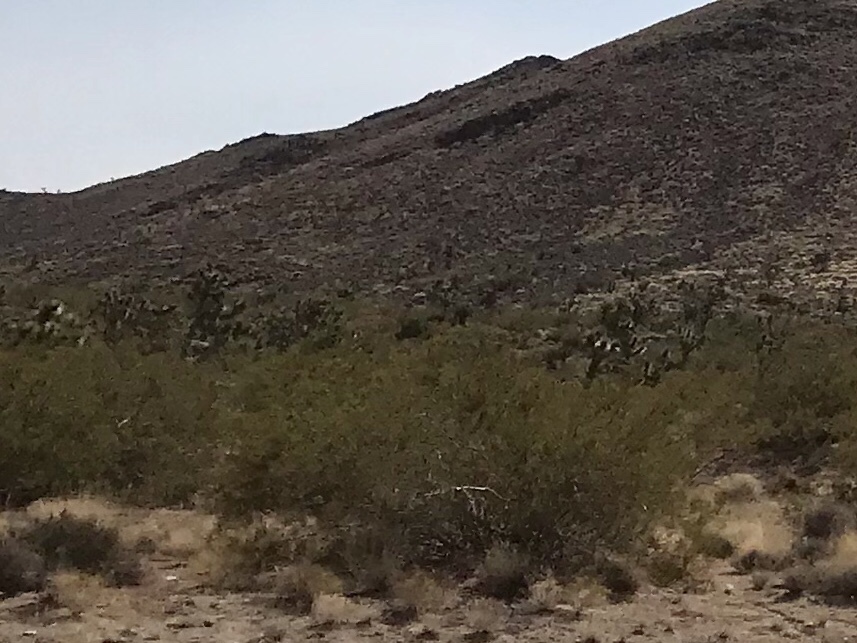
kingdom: Plantae
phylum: Tracheophyta
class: Magnoliopsida
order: Zygophyllales
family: Zygophyllaceae
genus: Larrea
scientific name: Larrea tridentata
